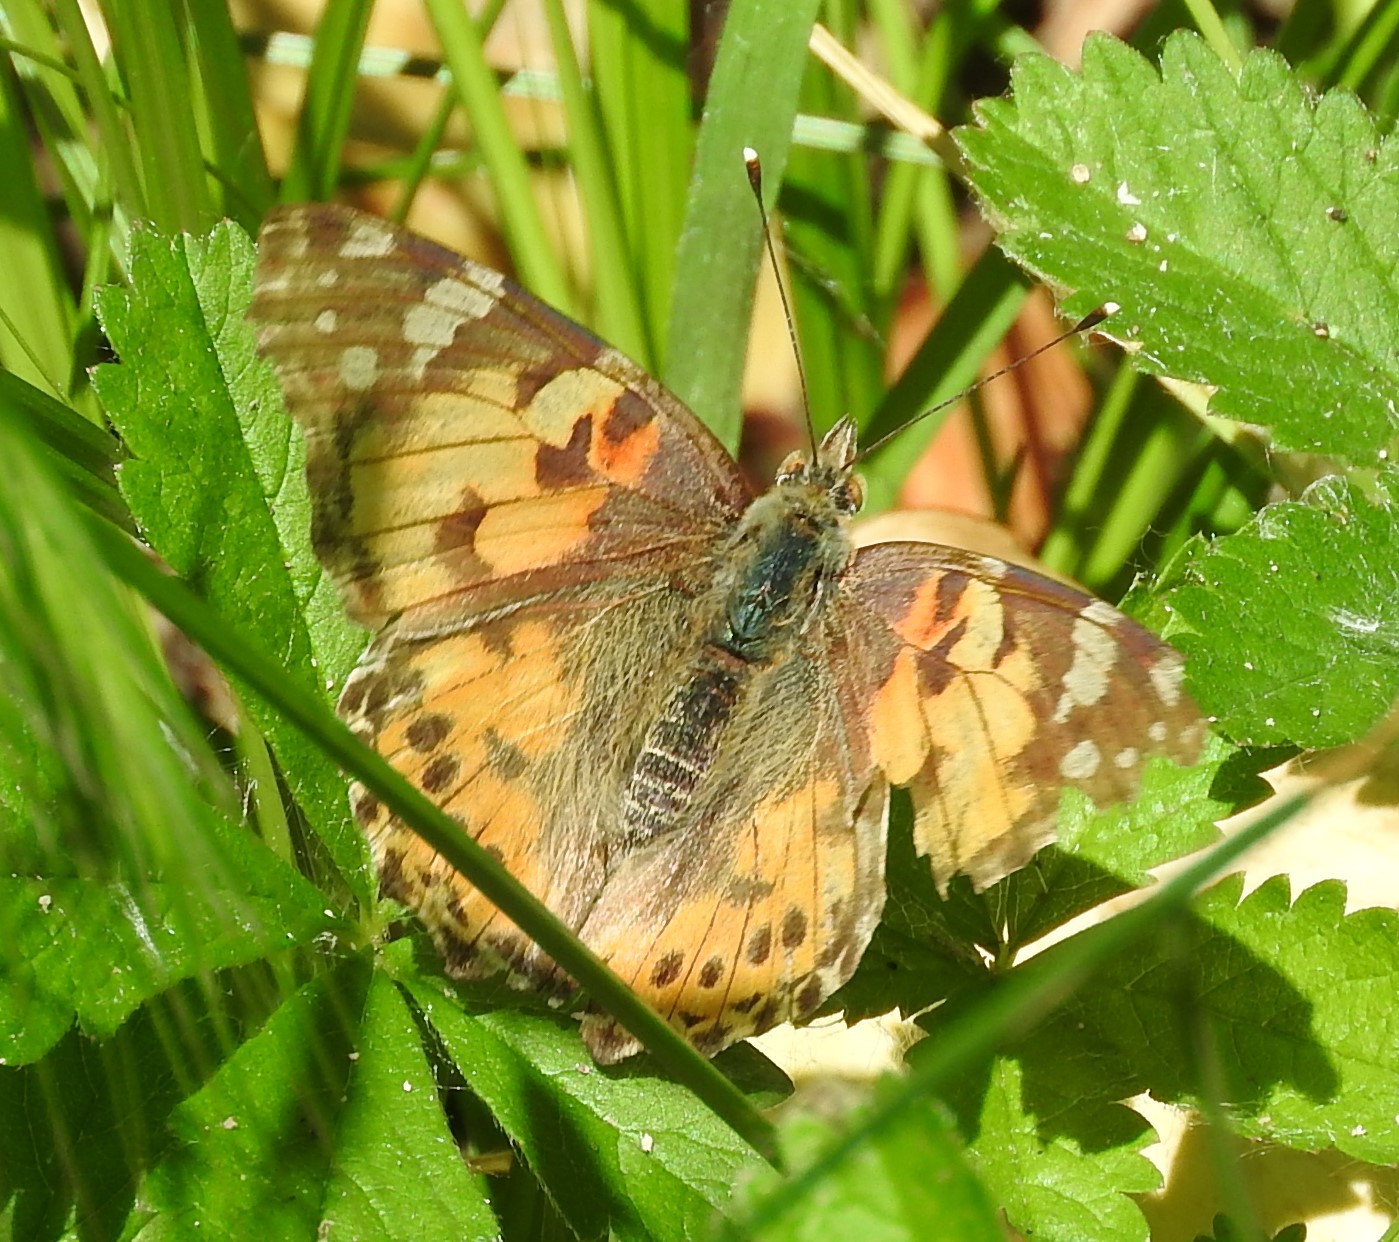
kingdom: Animalia
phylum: Arthropoda
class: Insecta
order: Lepidoptera
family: Nymphalidae
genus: Vanessa
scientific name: Vanessa cardui
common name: Painted lady
